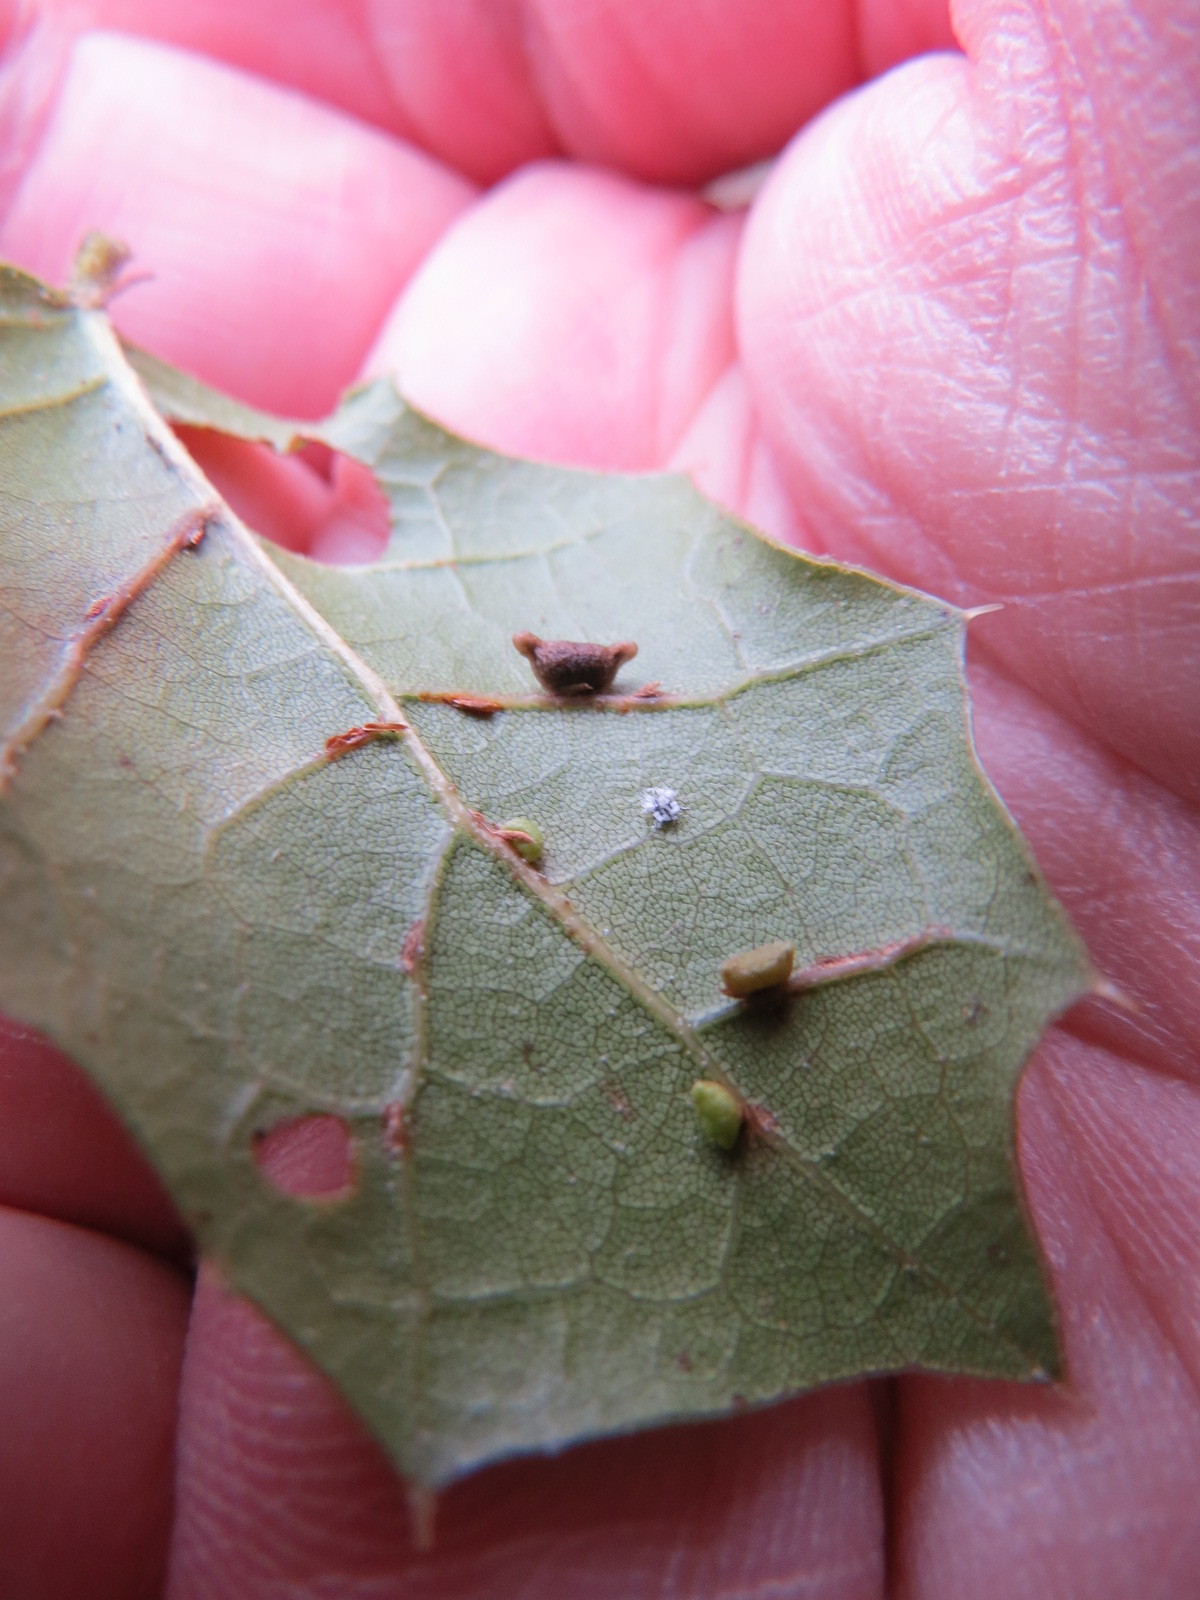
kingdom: Animalia
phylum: Arthropoda
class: Insecta
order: Hymenoptera
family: Cynipidae
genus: Dryocosmus
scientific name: Dryocosmus
